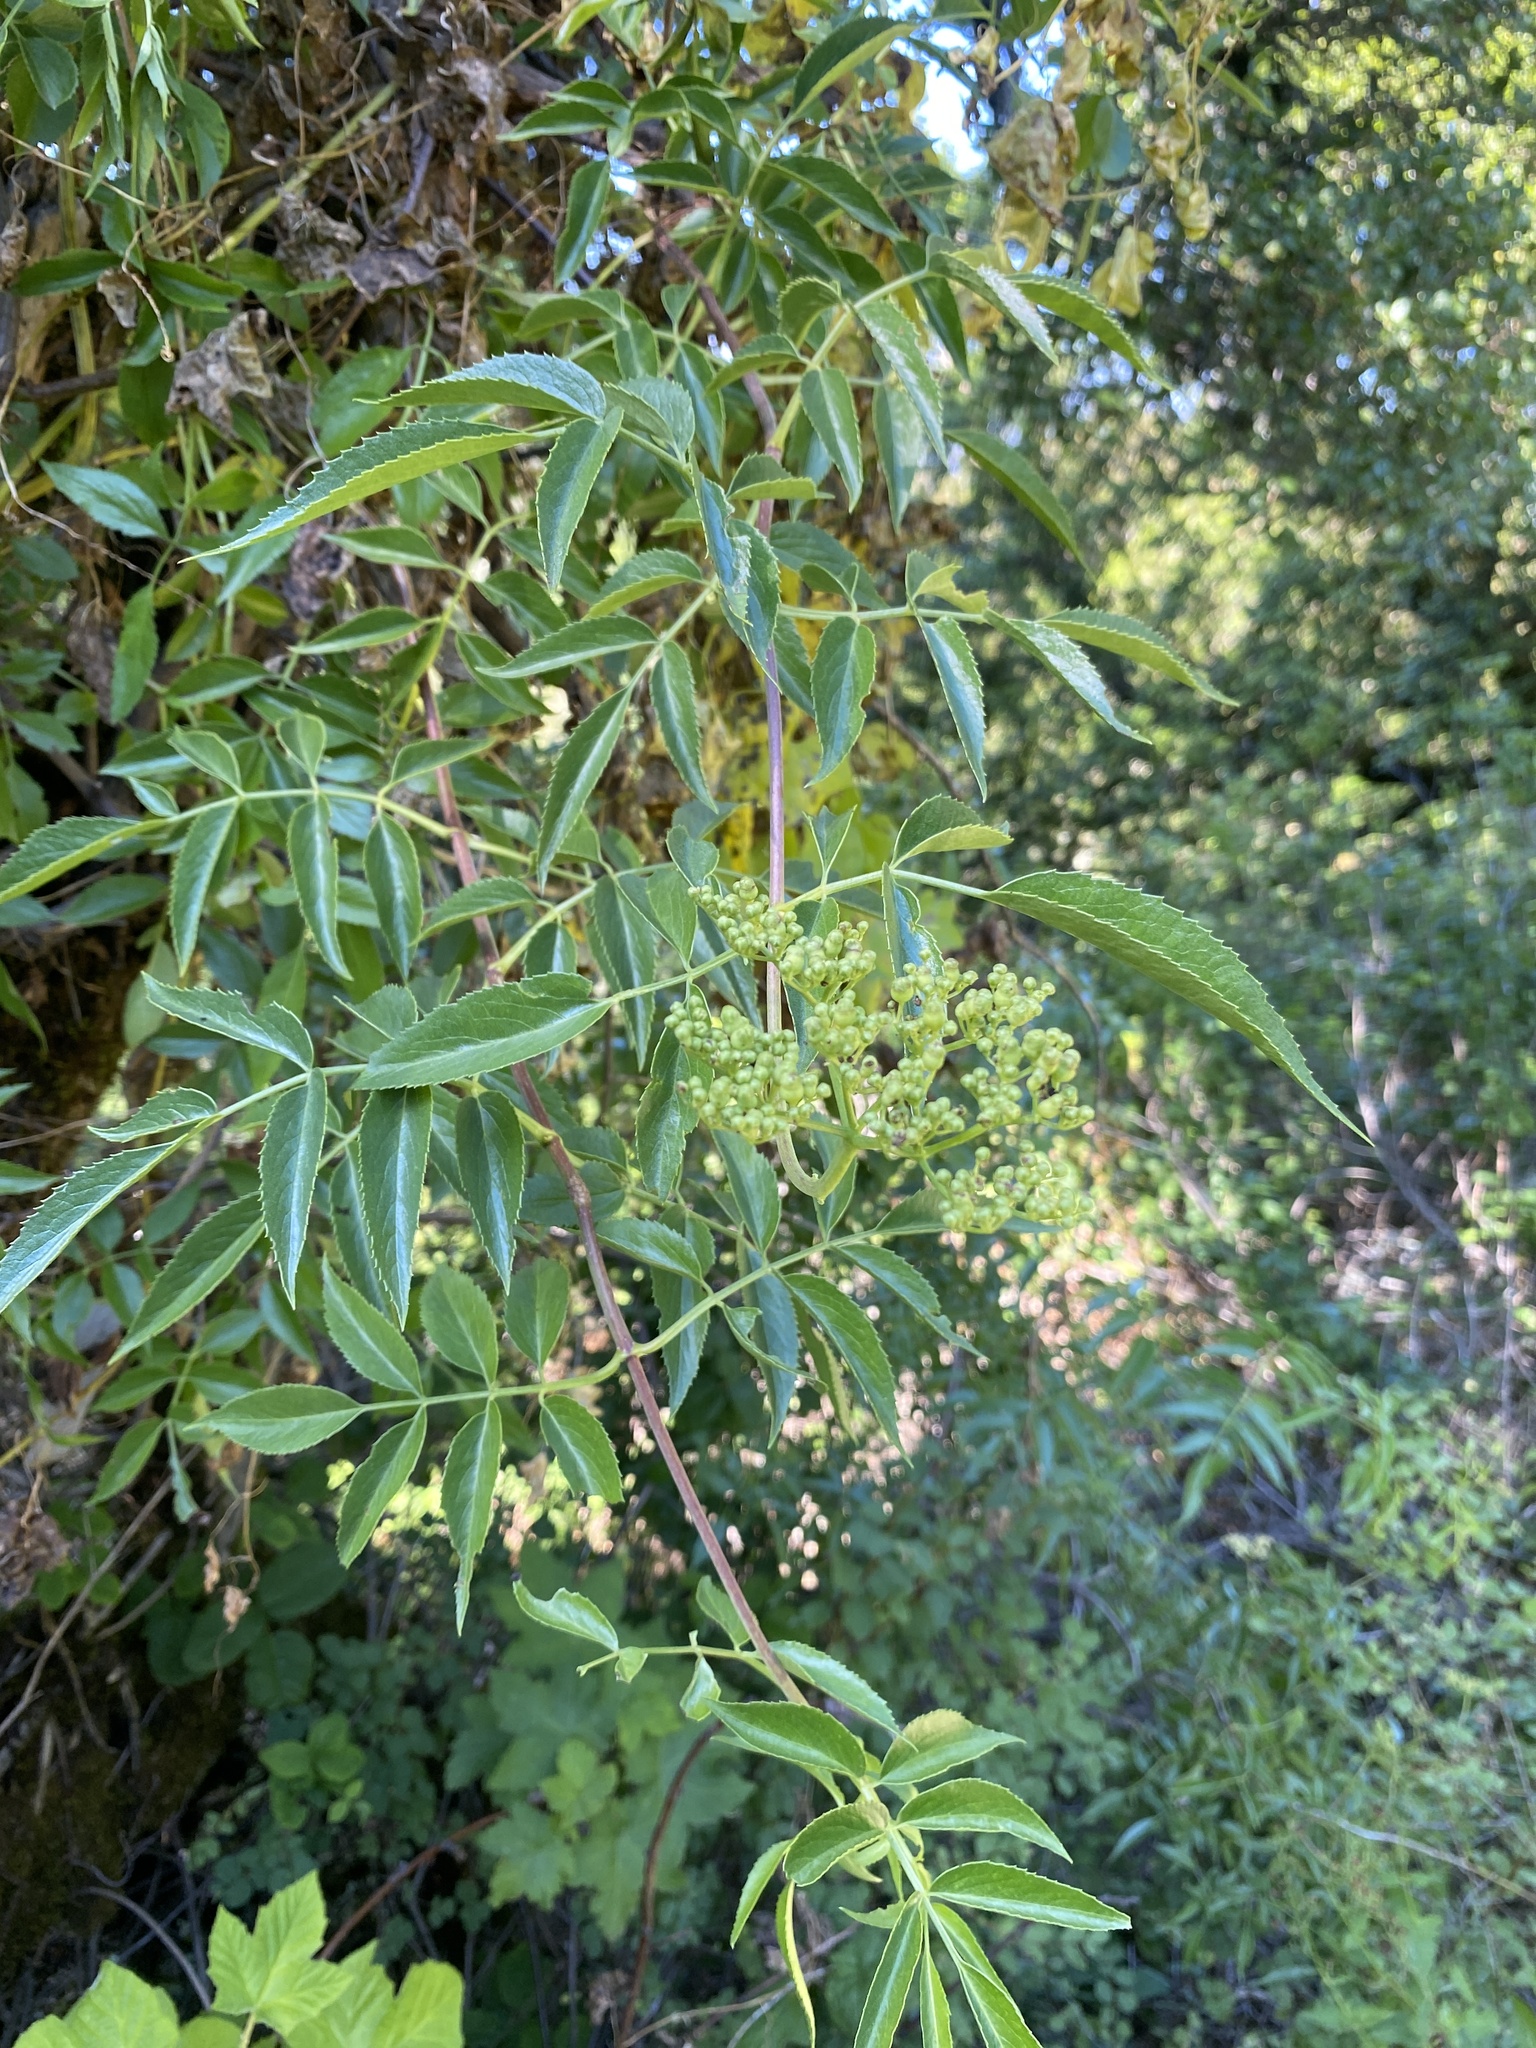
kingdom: Plantae
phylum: Tracheophyta
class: Magnoliopsida
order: Dipsacales
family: Viburnaceae
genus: Sambucus
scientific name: Sambucus cerulea
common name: Blue elder
